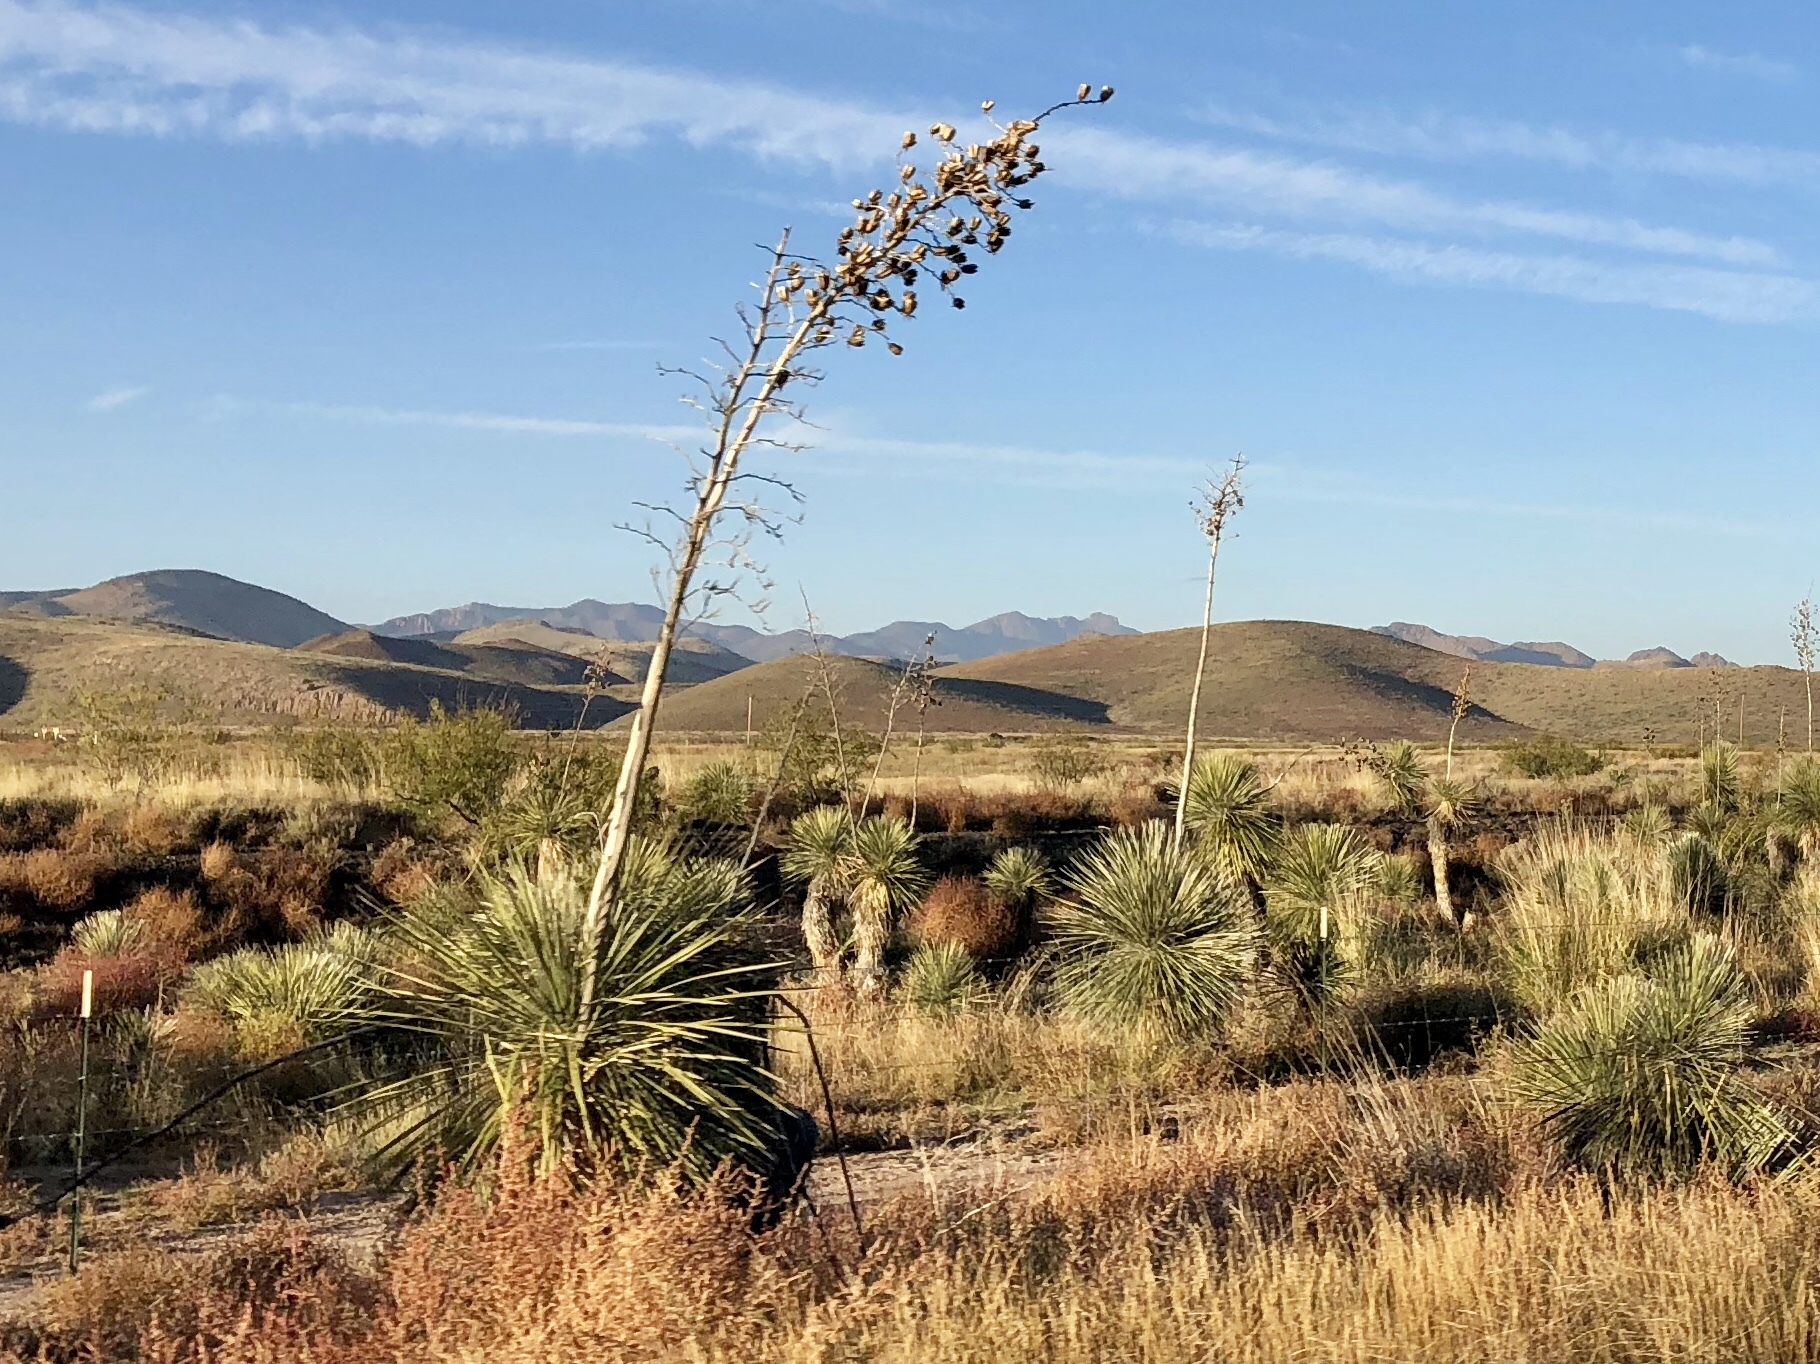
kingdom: Plantae
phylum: Tracheophyta
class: Liliopsida
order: Asparagales
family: Asparagaceae
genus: Yucca
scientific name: Yucca elata
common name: Palmella
